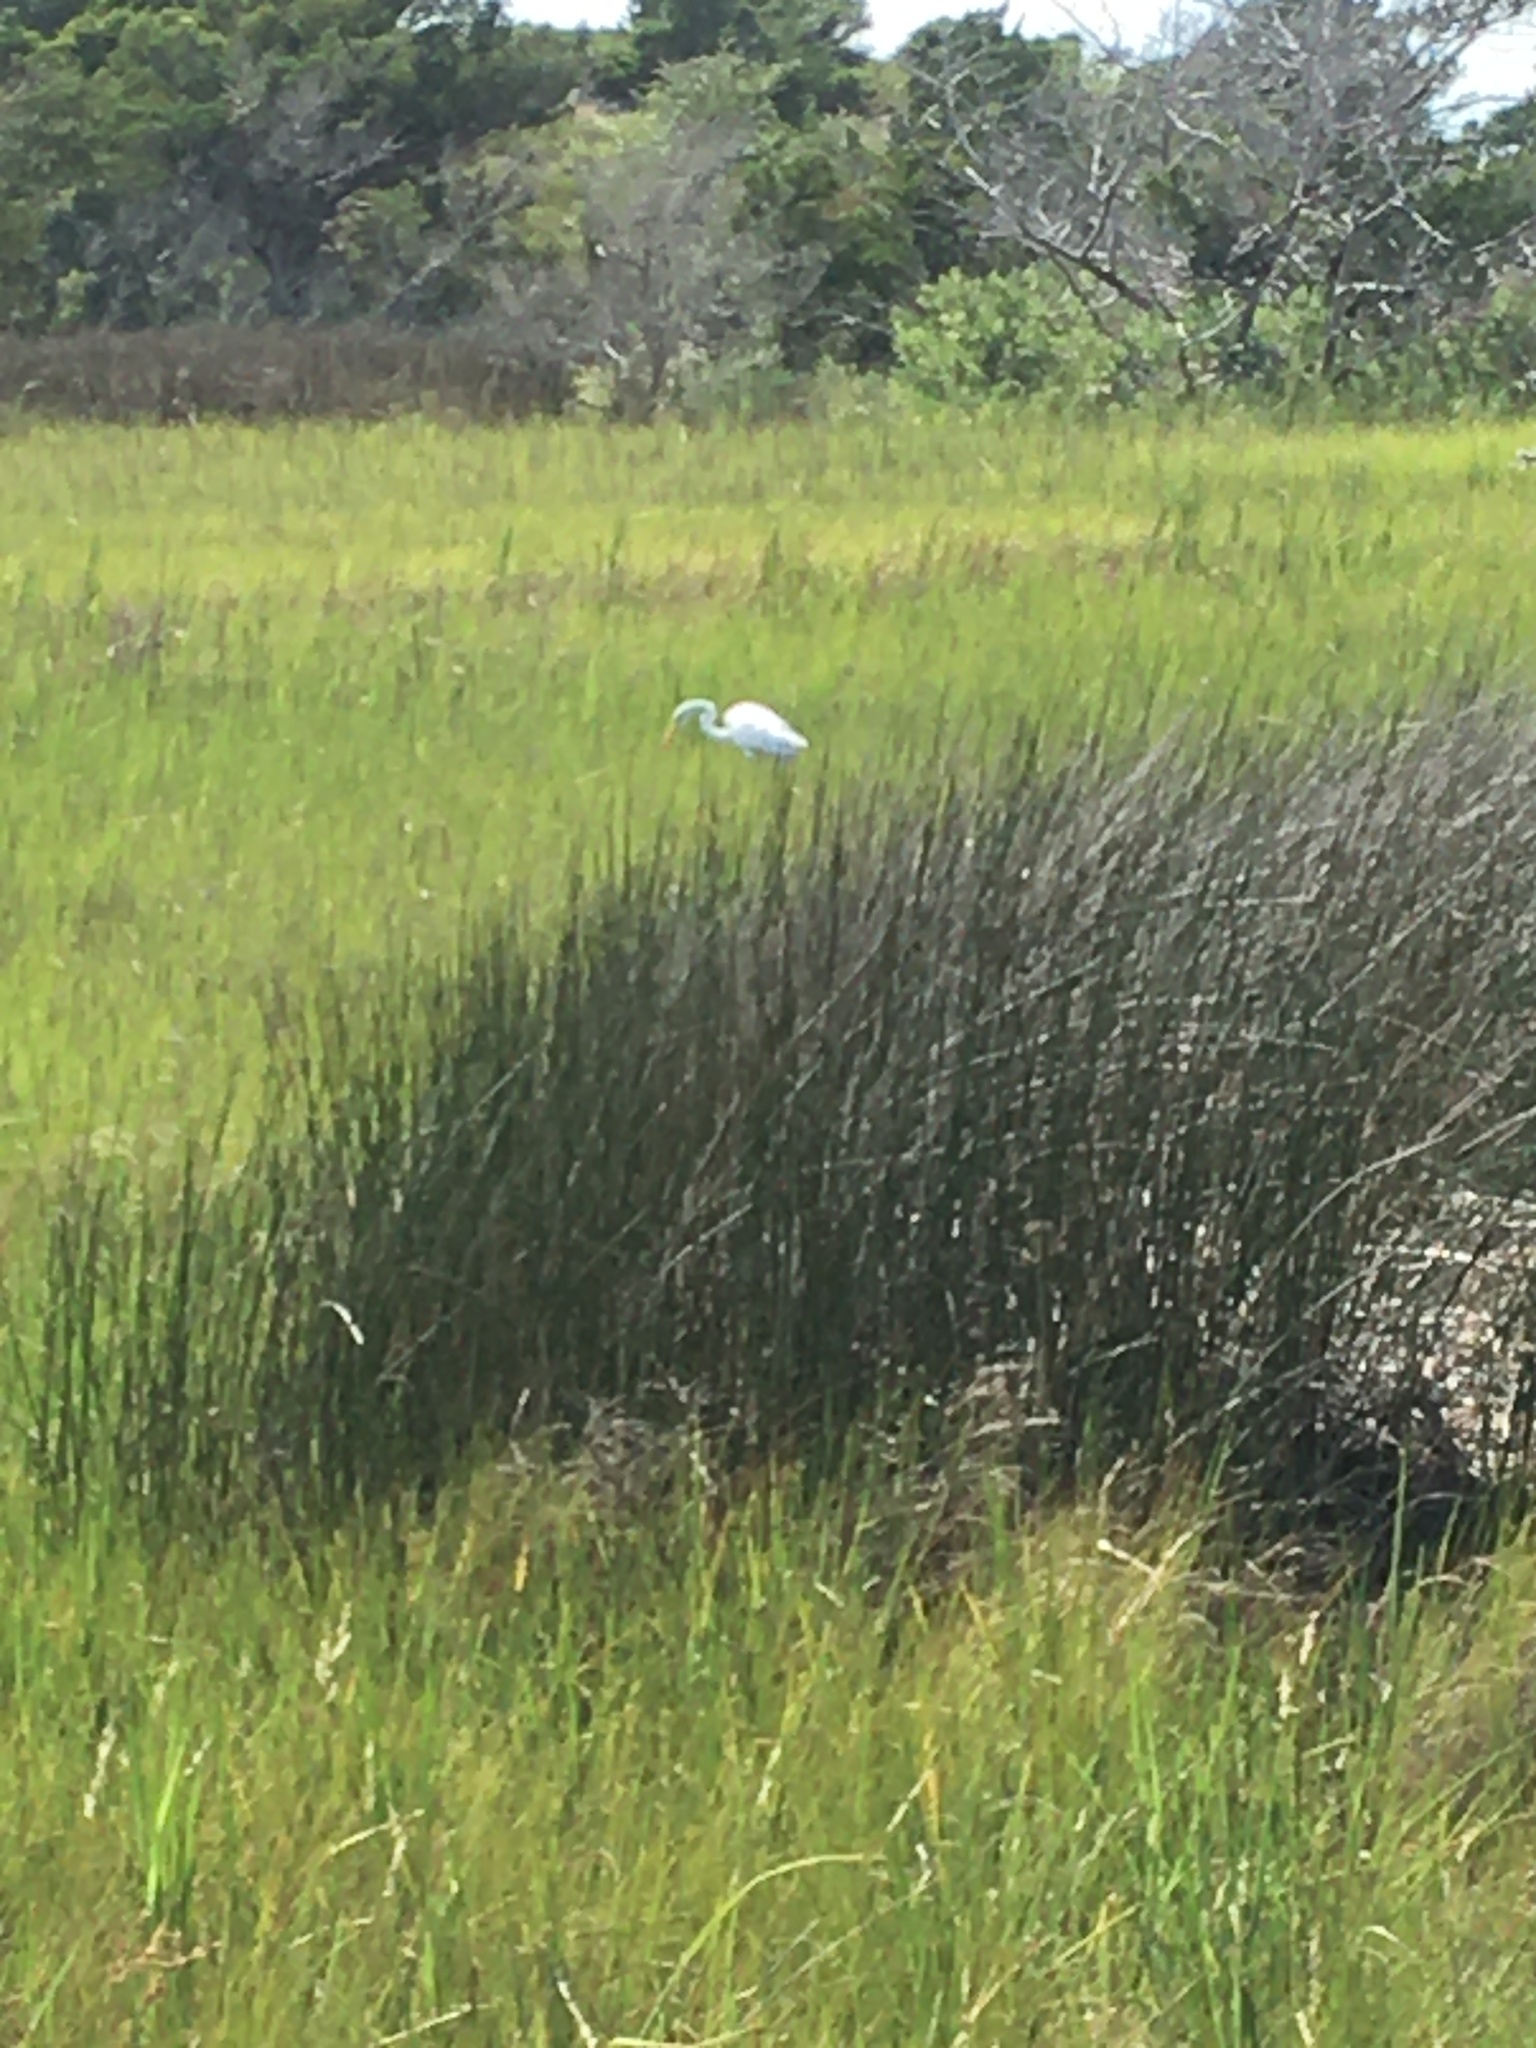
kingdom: Animalia
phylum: Chordata
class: Aves
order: Pelecaniformes
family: Ardeidae
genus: Ardea
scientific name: Ardea alba
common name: Great egret
